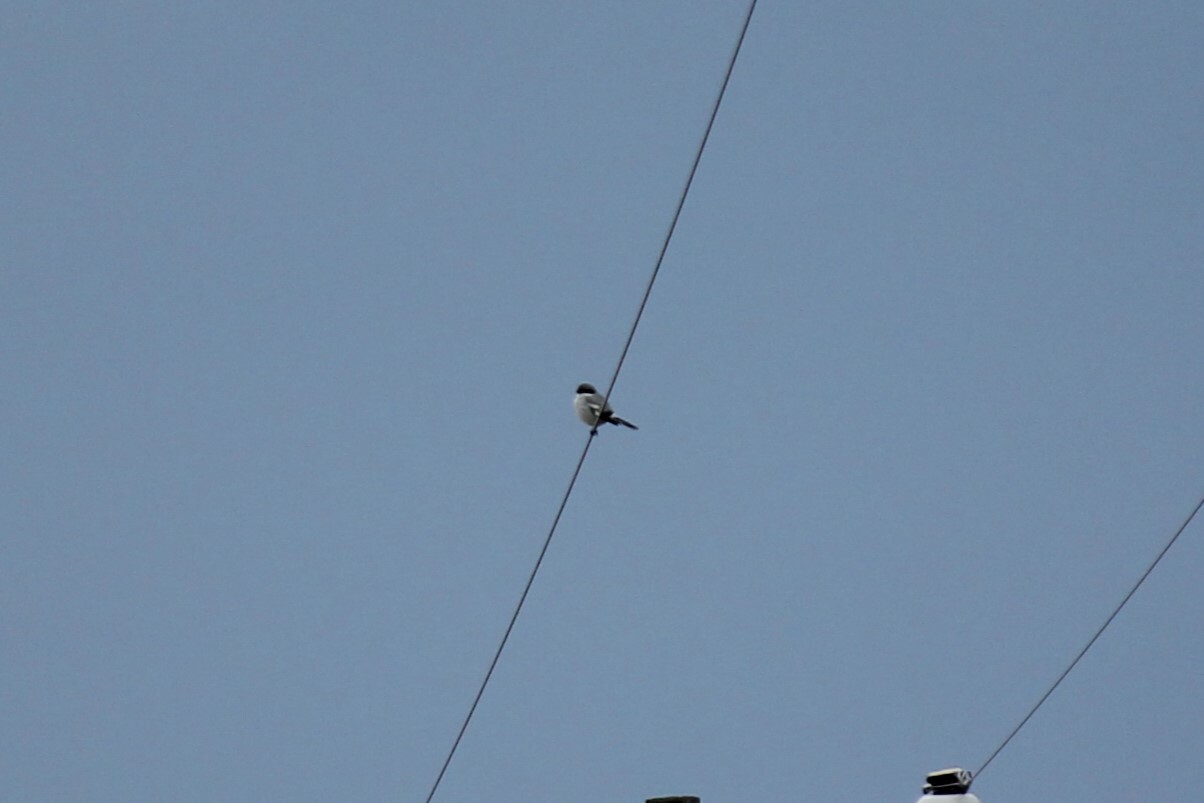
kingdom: Animalia
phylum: Chordata
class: Aves
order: Passeriformes
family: Laniidae
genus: Lanius
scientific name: Lanius ludovicianus
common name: Loggerhead shrike
